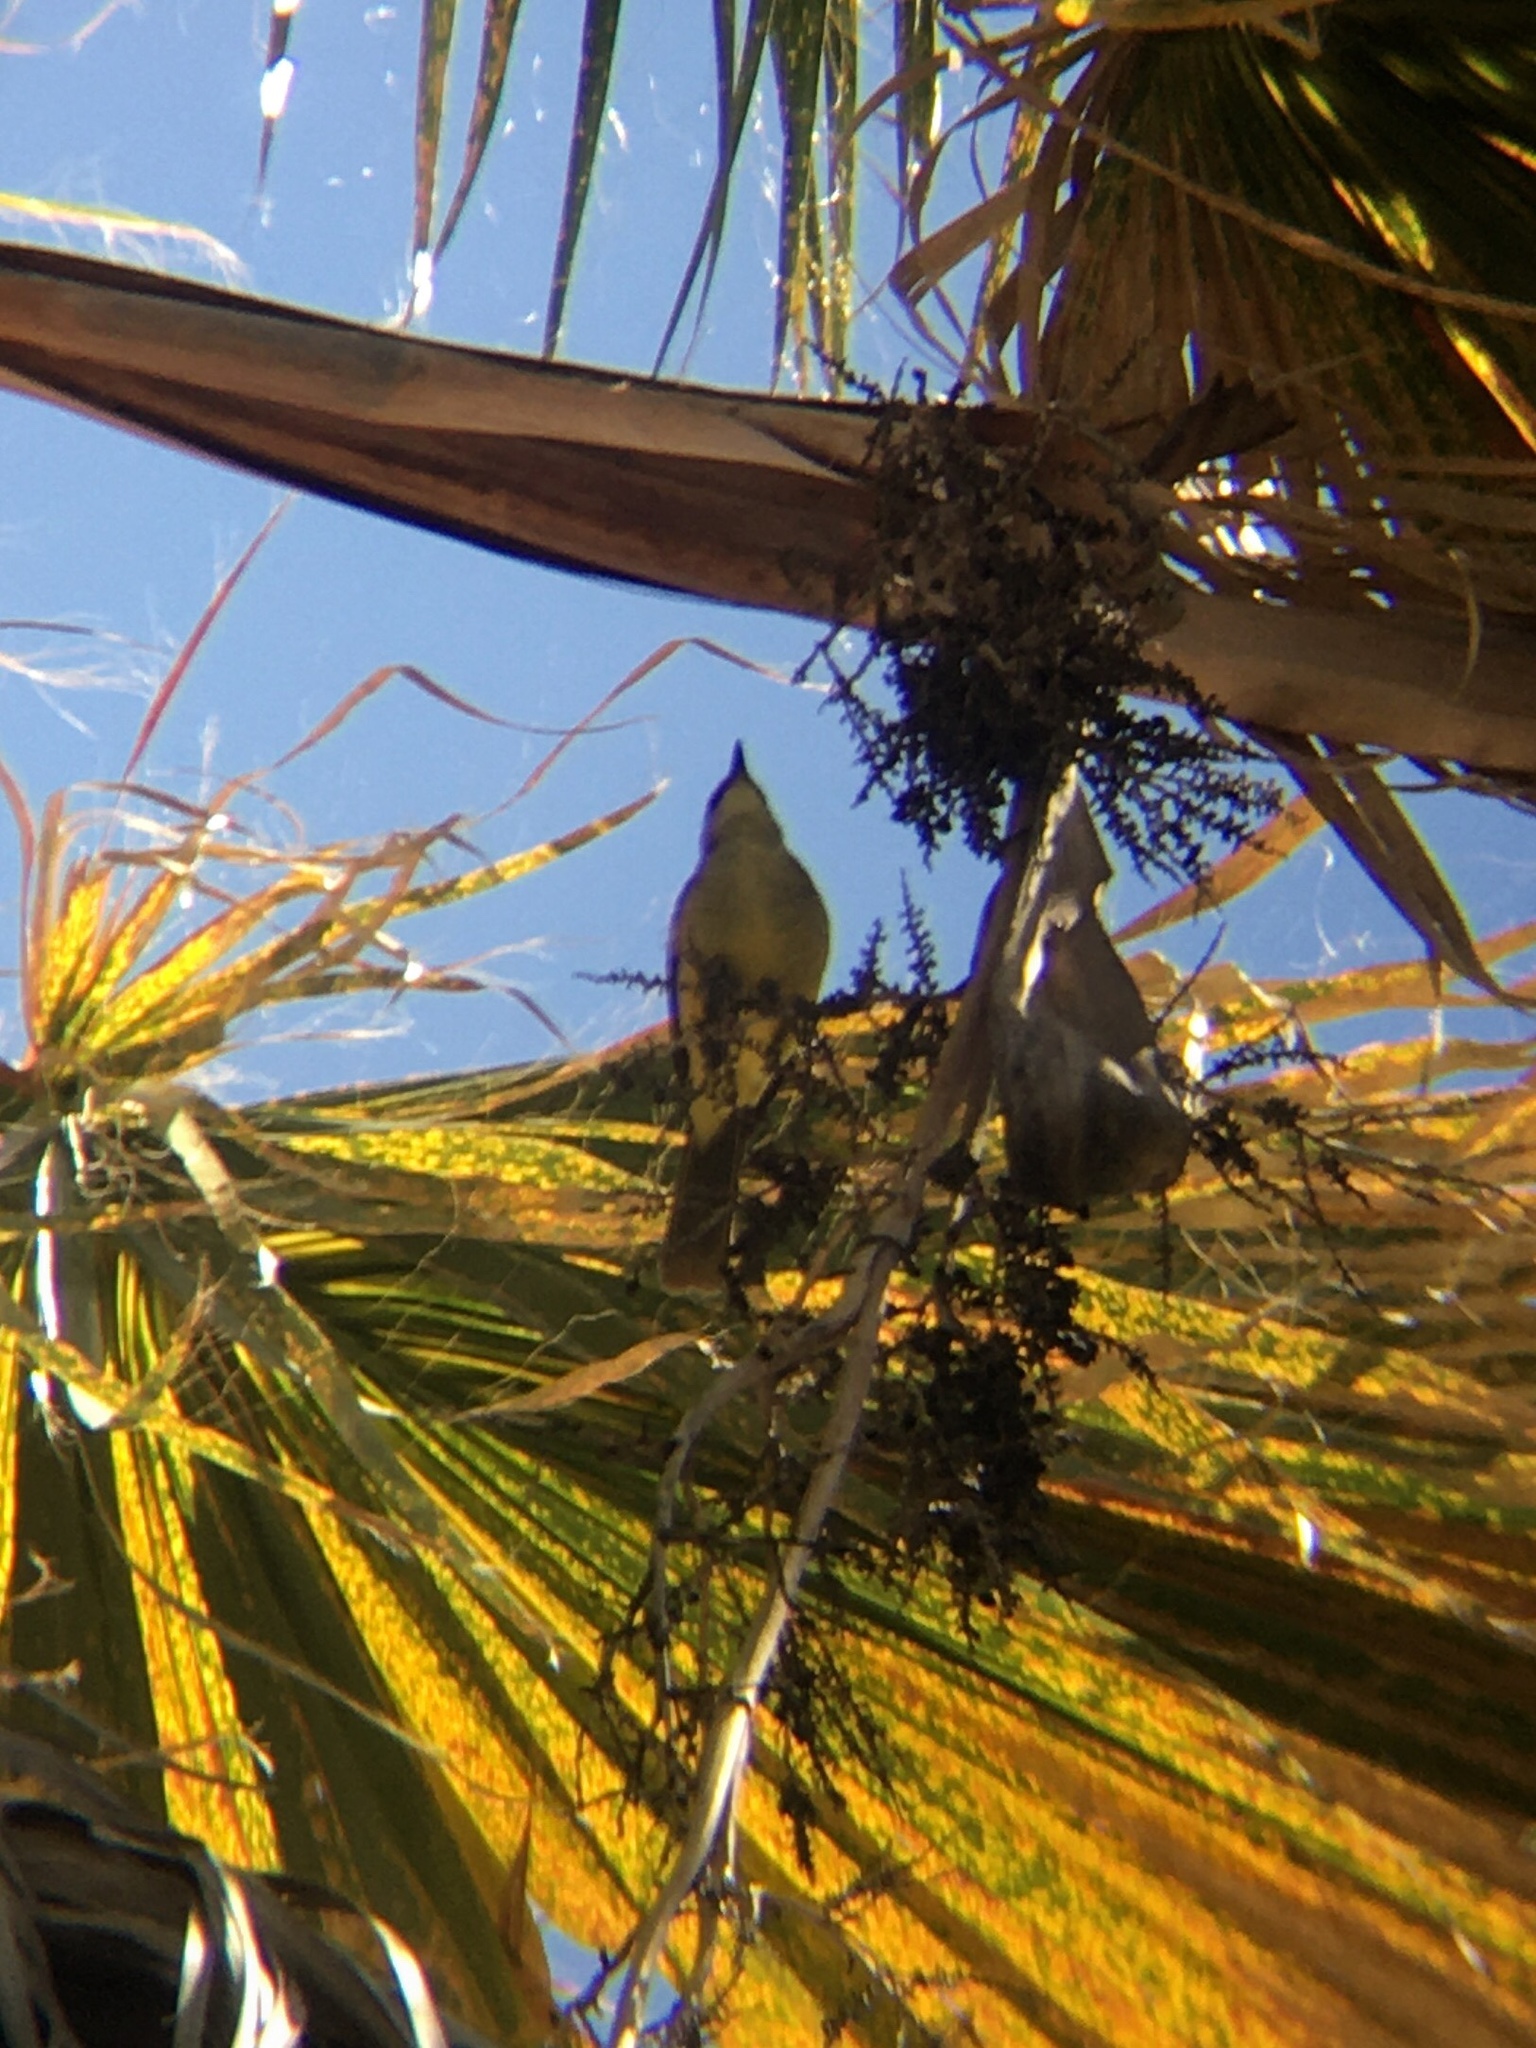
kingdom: Animalia
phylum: Chordata
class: Aves
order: Passeriformes
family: Tyrannidae
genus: Machetornis
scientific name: Machetornis rixosa
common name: Cattle tyrant
